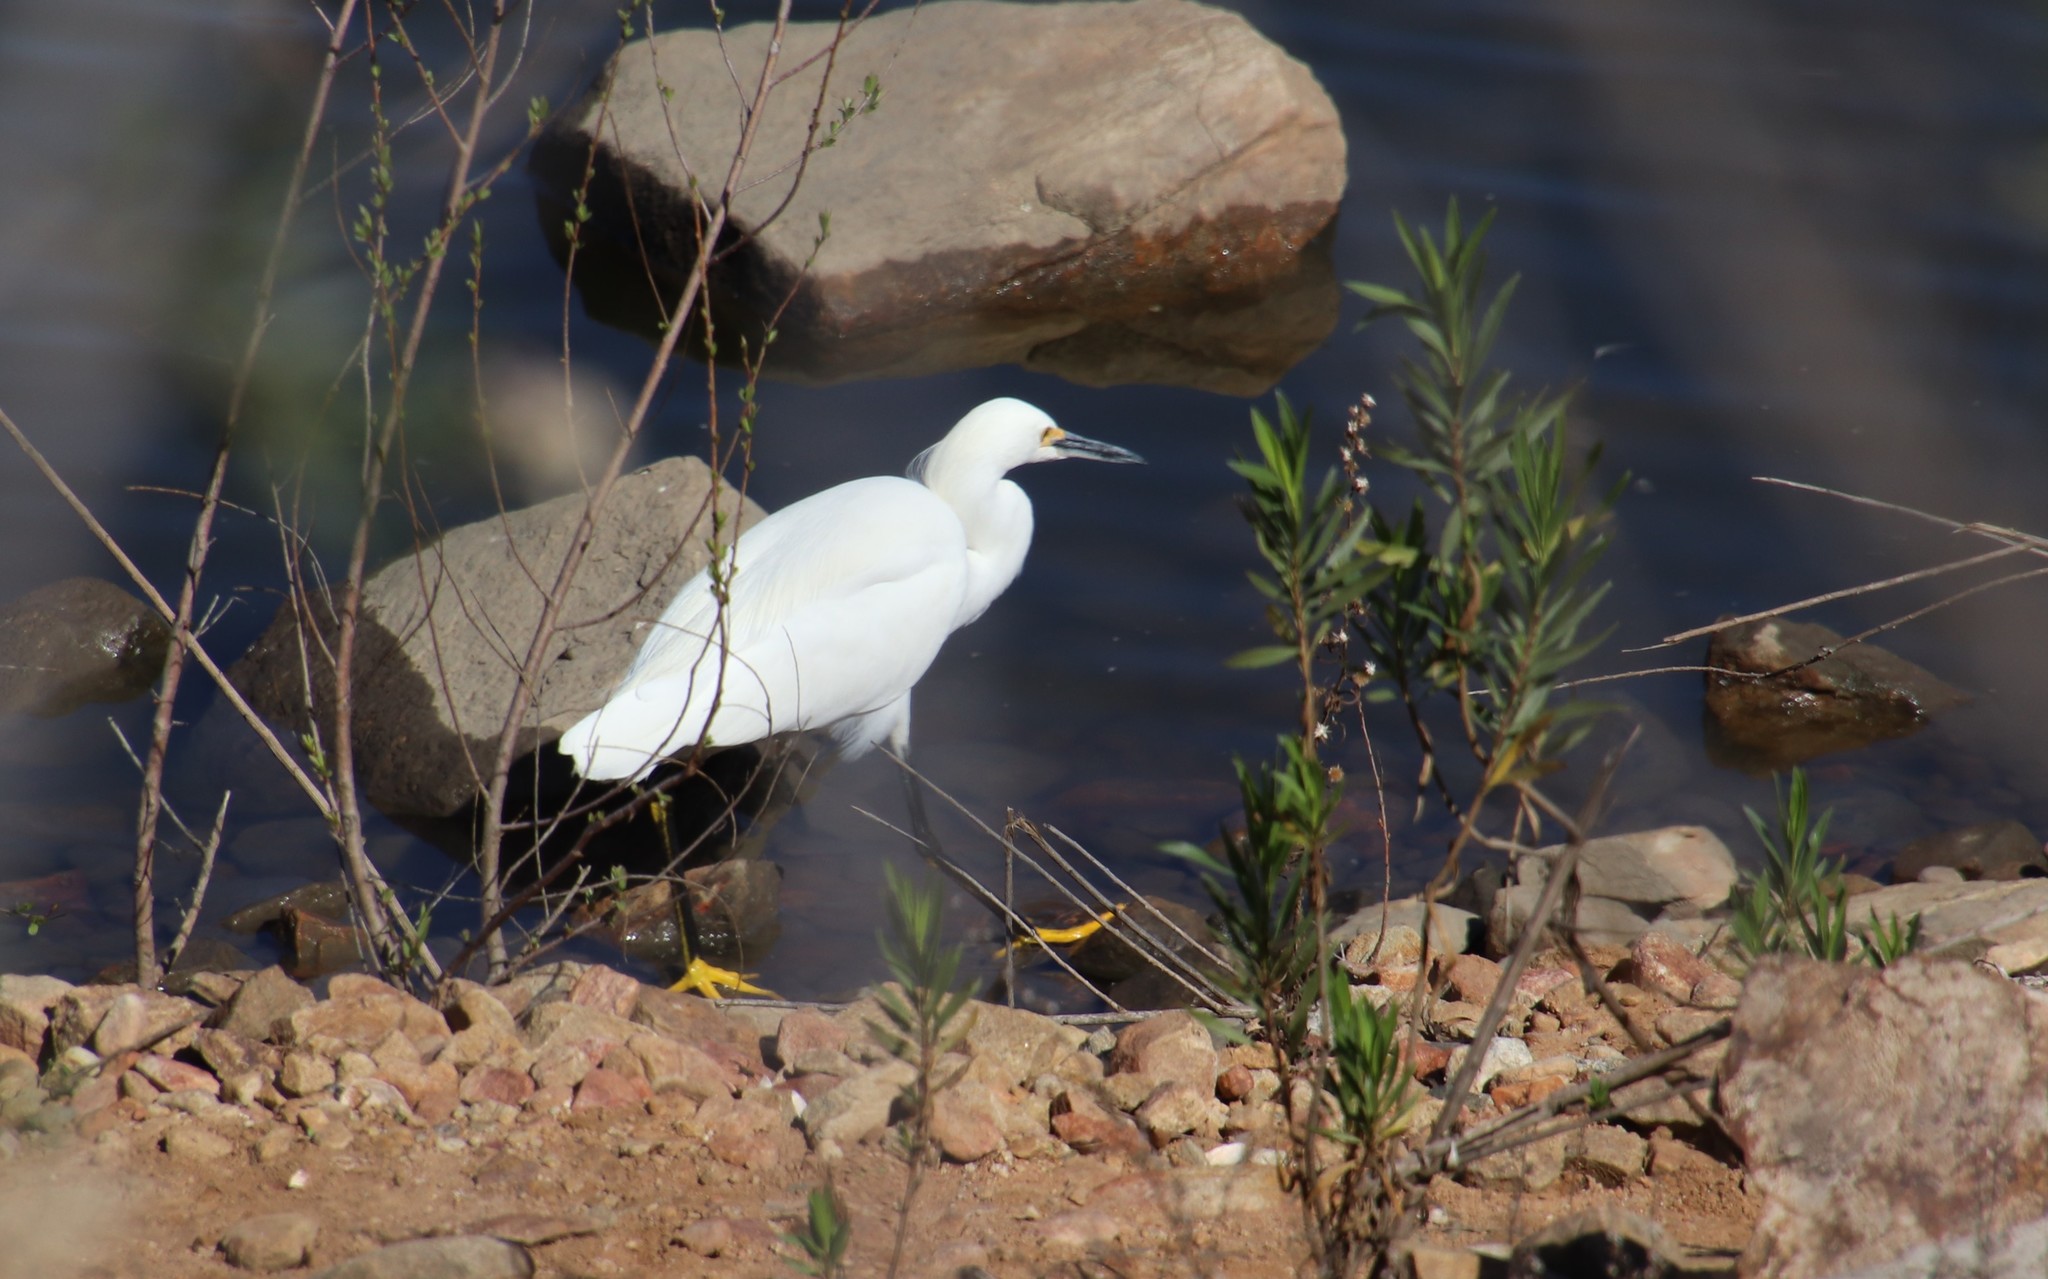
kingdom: Animalia
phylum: Chordata
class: Aves
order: Pelecaniformes
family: Ardeidae
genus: Egretta
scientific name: Egretta thula
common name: Snowy egret
